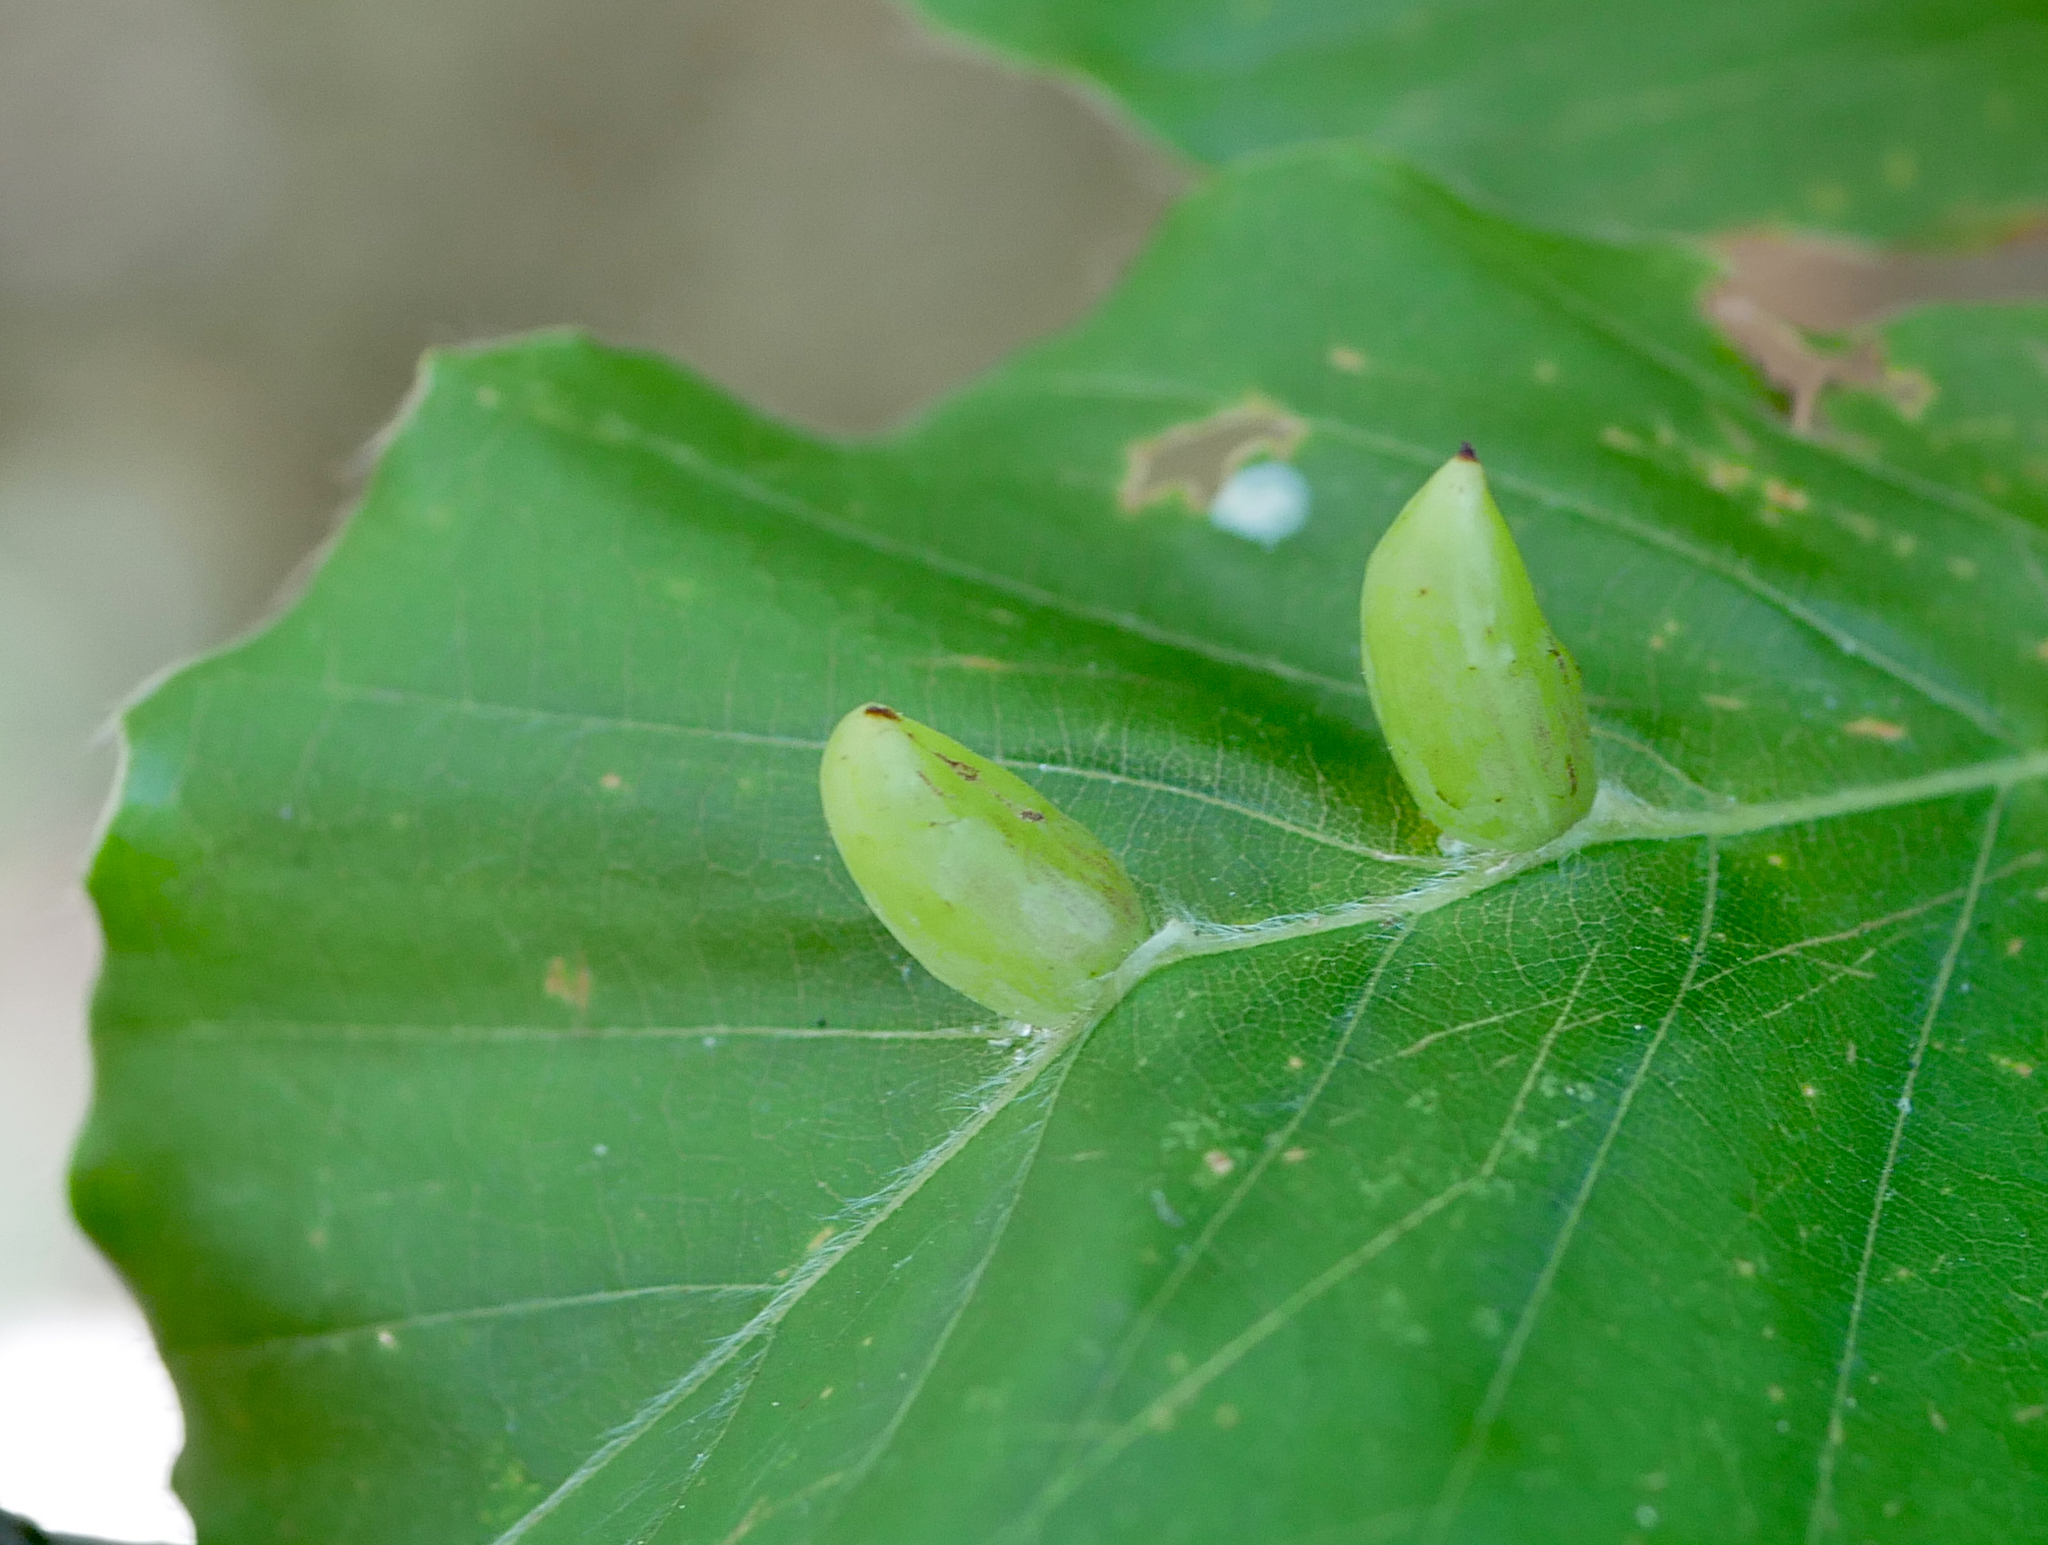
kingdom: Animalia
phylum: Arthropoda
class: Insecta
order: Diptera
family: Cecidomyiidae
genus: Mikiola
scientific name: Mikiola fagi
